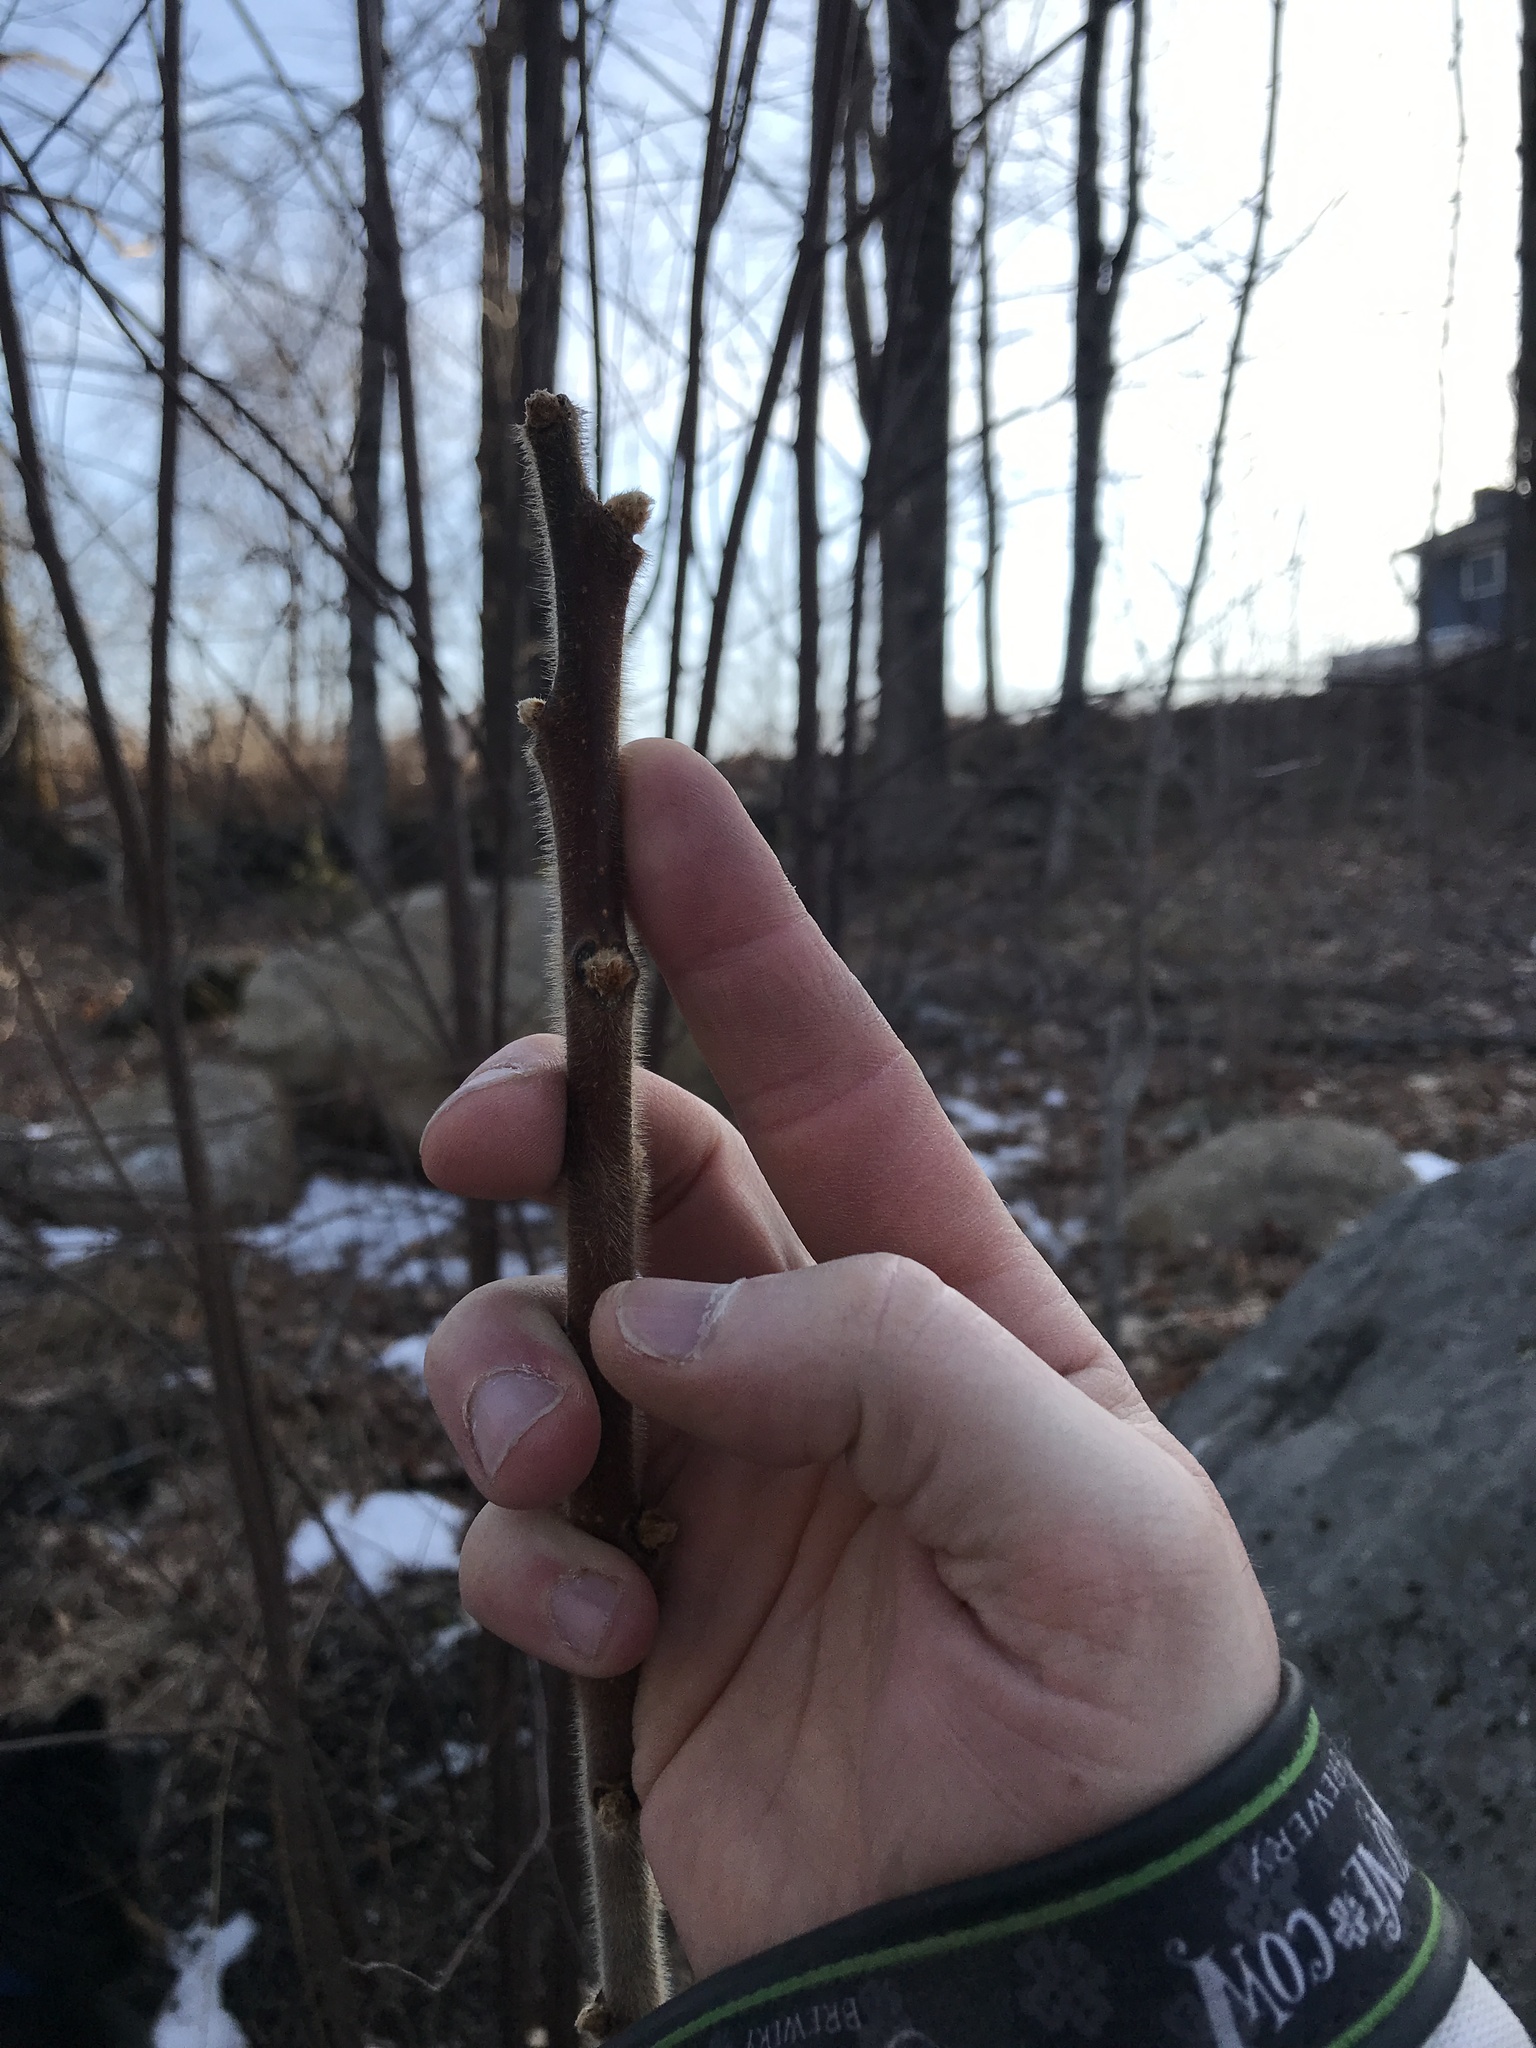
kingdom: Plantae
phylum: Tracheophyta
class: Magnoliopsida
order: Sapindales
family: Anacardiaceae
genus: Rhus
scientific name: Rhus typhina
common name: Staghorn sumac
